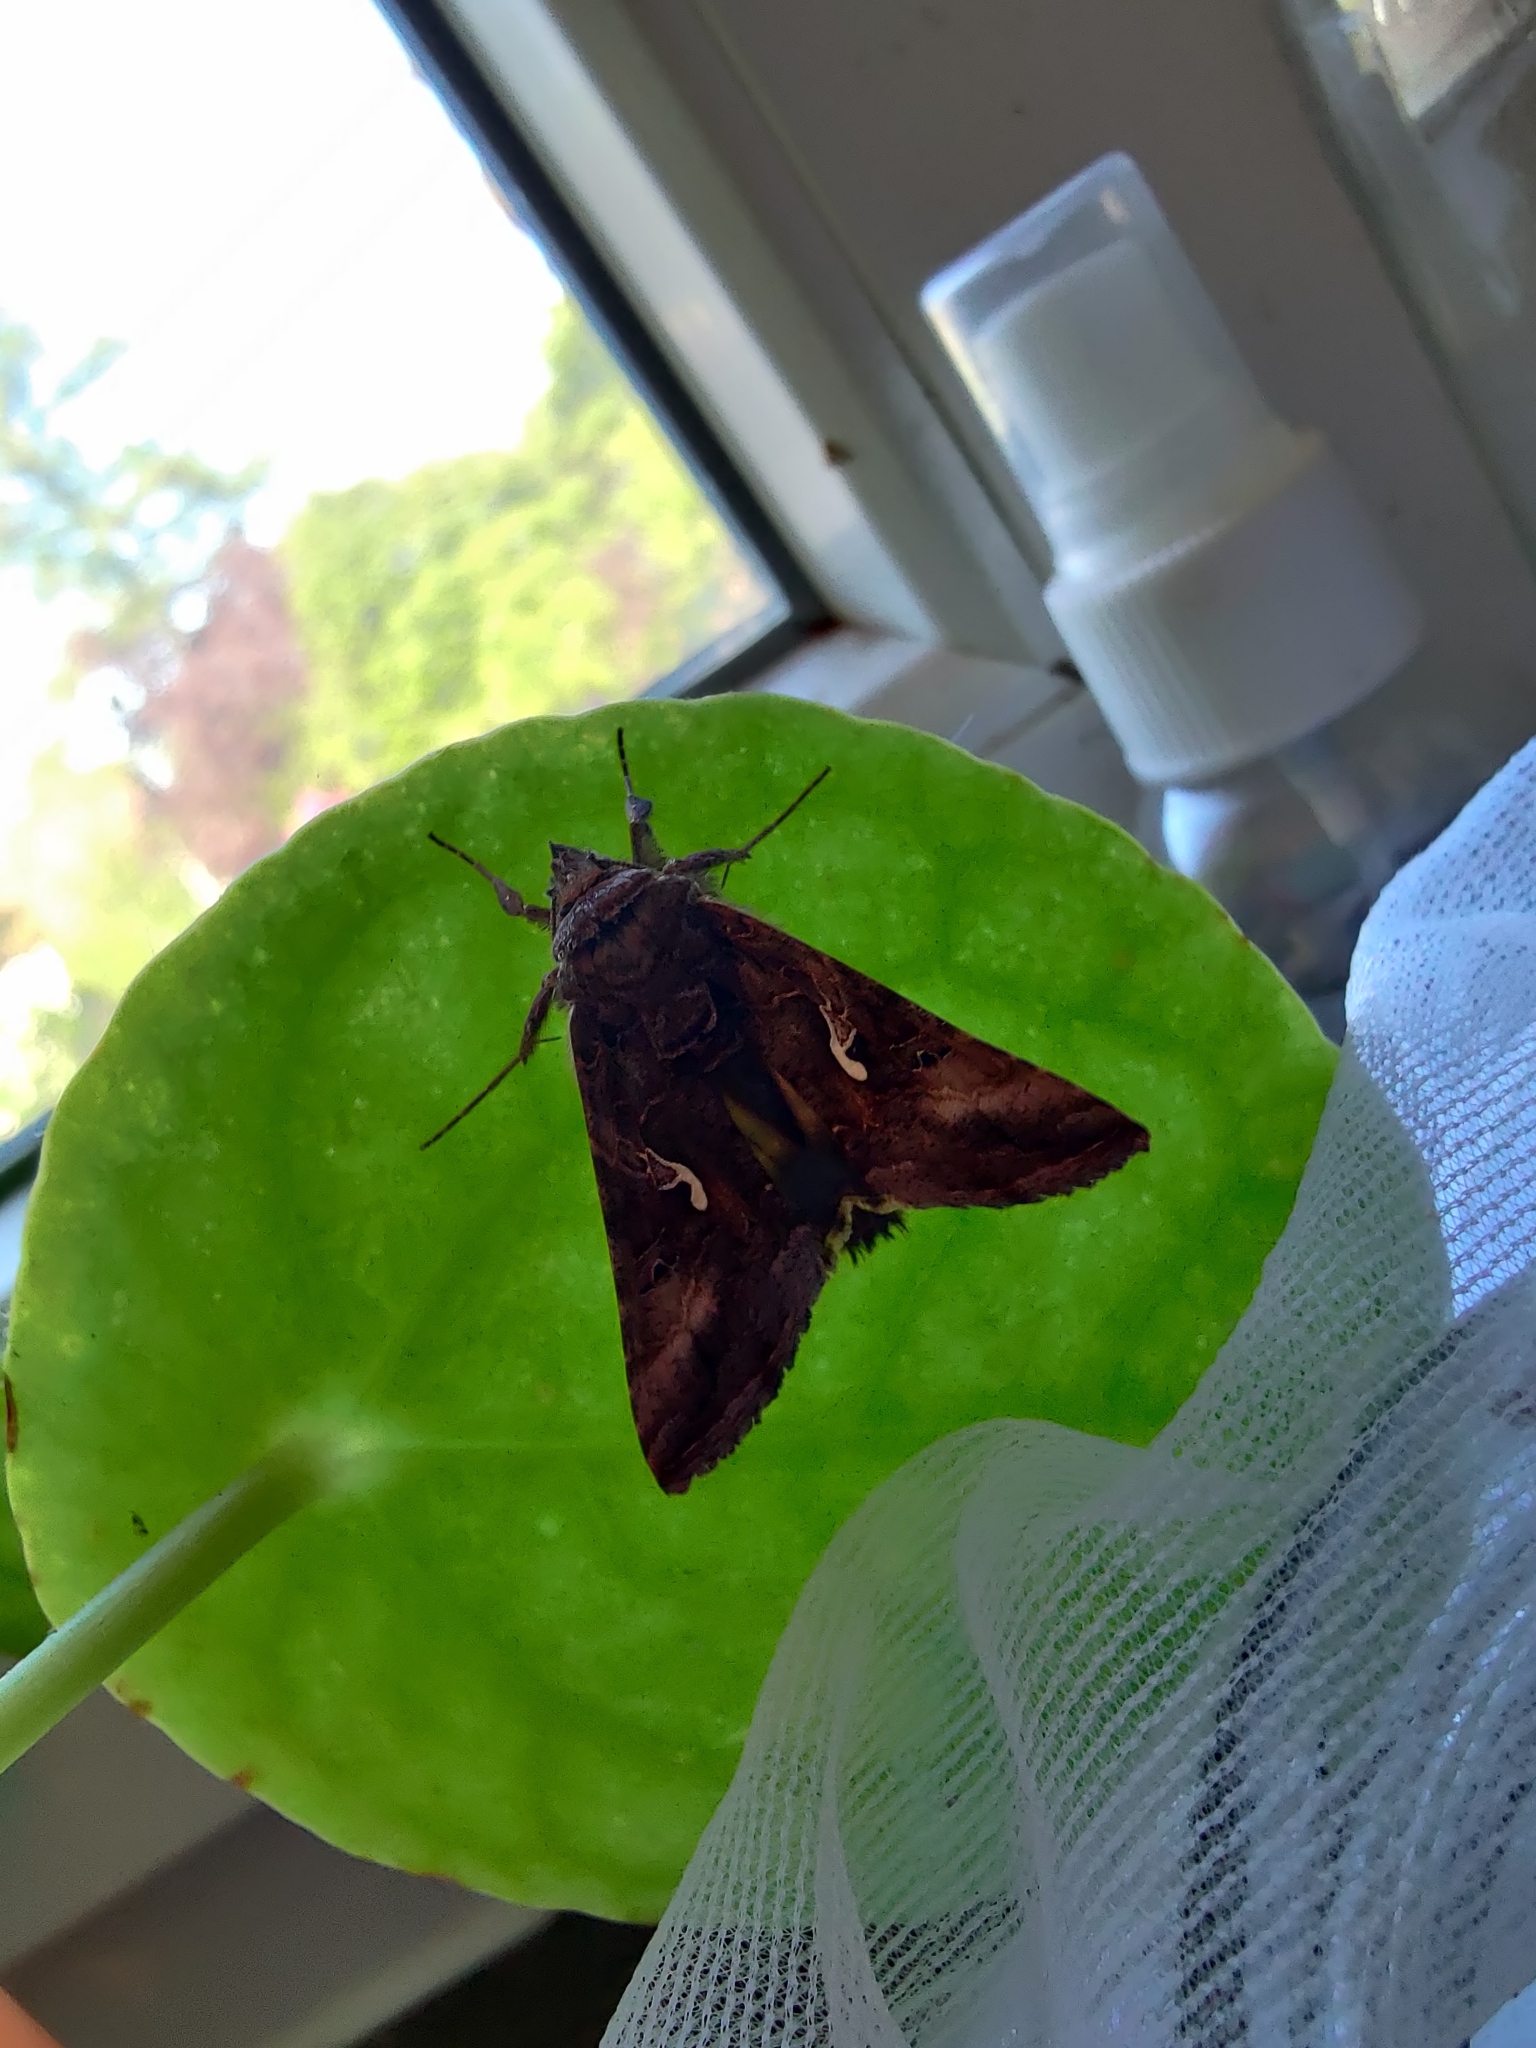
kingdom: Animalia
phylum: Arthropoda
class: Insecta
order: Lepidoptera
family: Noctuidae
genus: Autographa
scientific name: Autographa gamma
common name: Silver y
